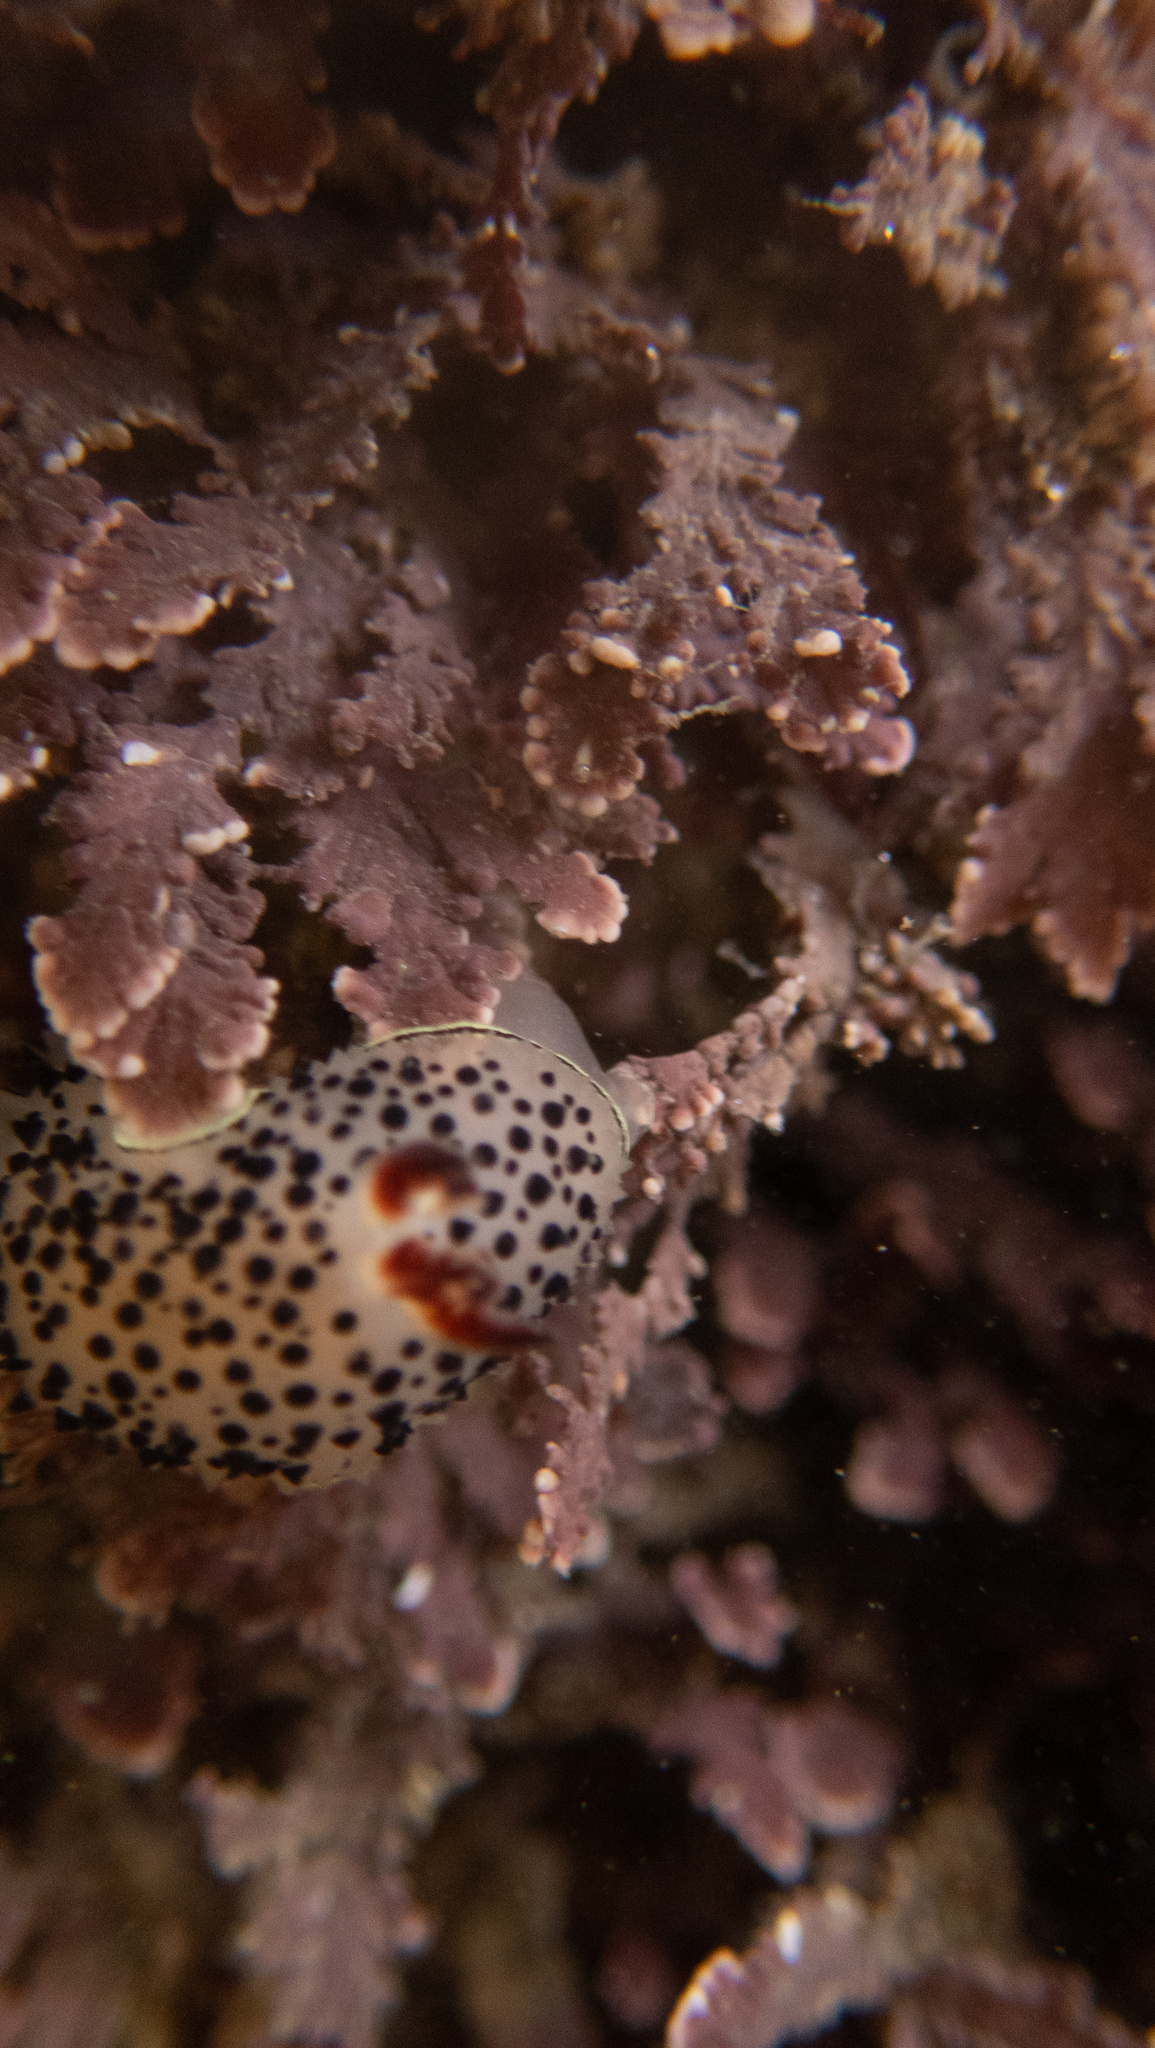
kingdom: Animalia
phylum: Mollusca
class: Gastropoda
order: Nudibranchia
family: Onchidorididae
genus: Acanthodoris
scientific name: Acanthodoris rhodoceras
